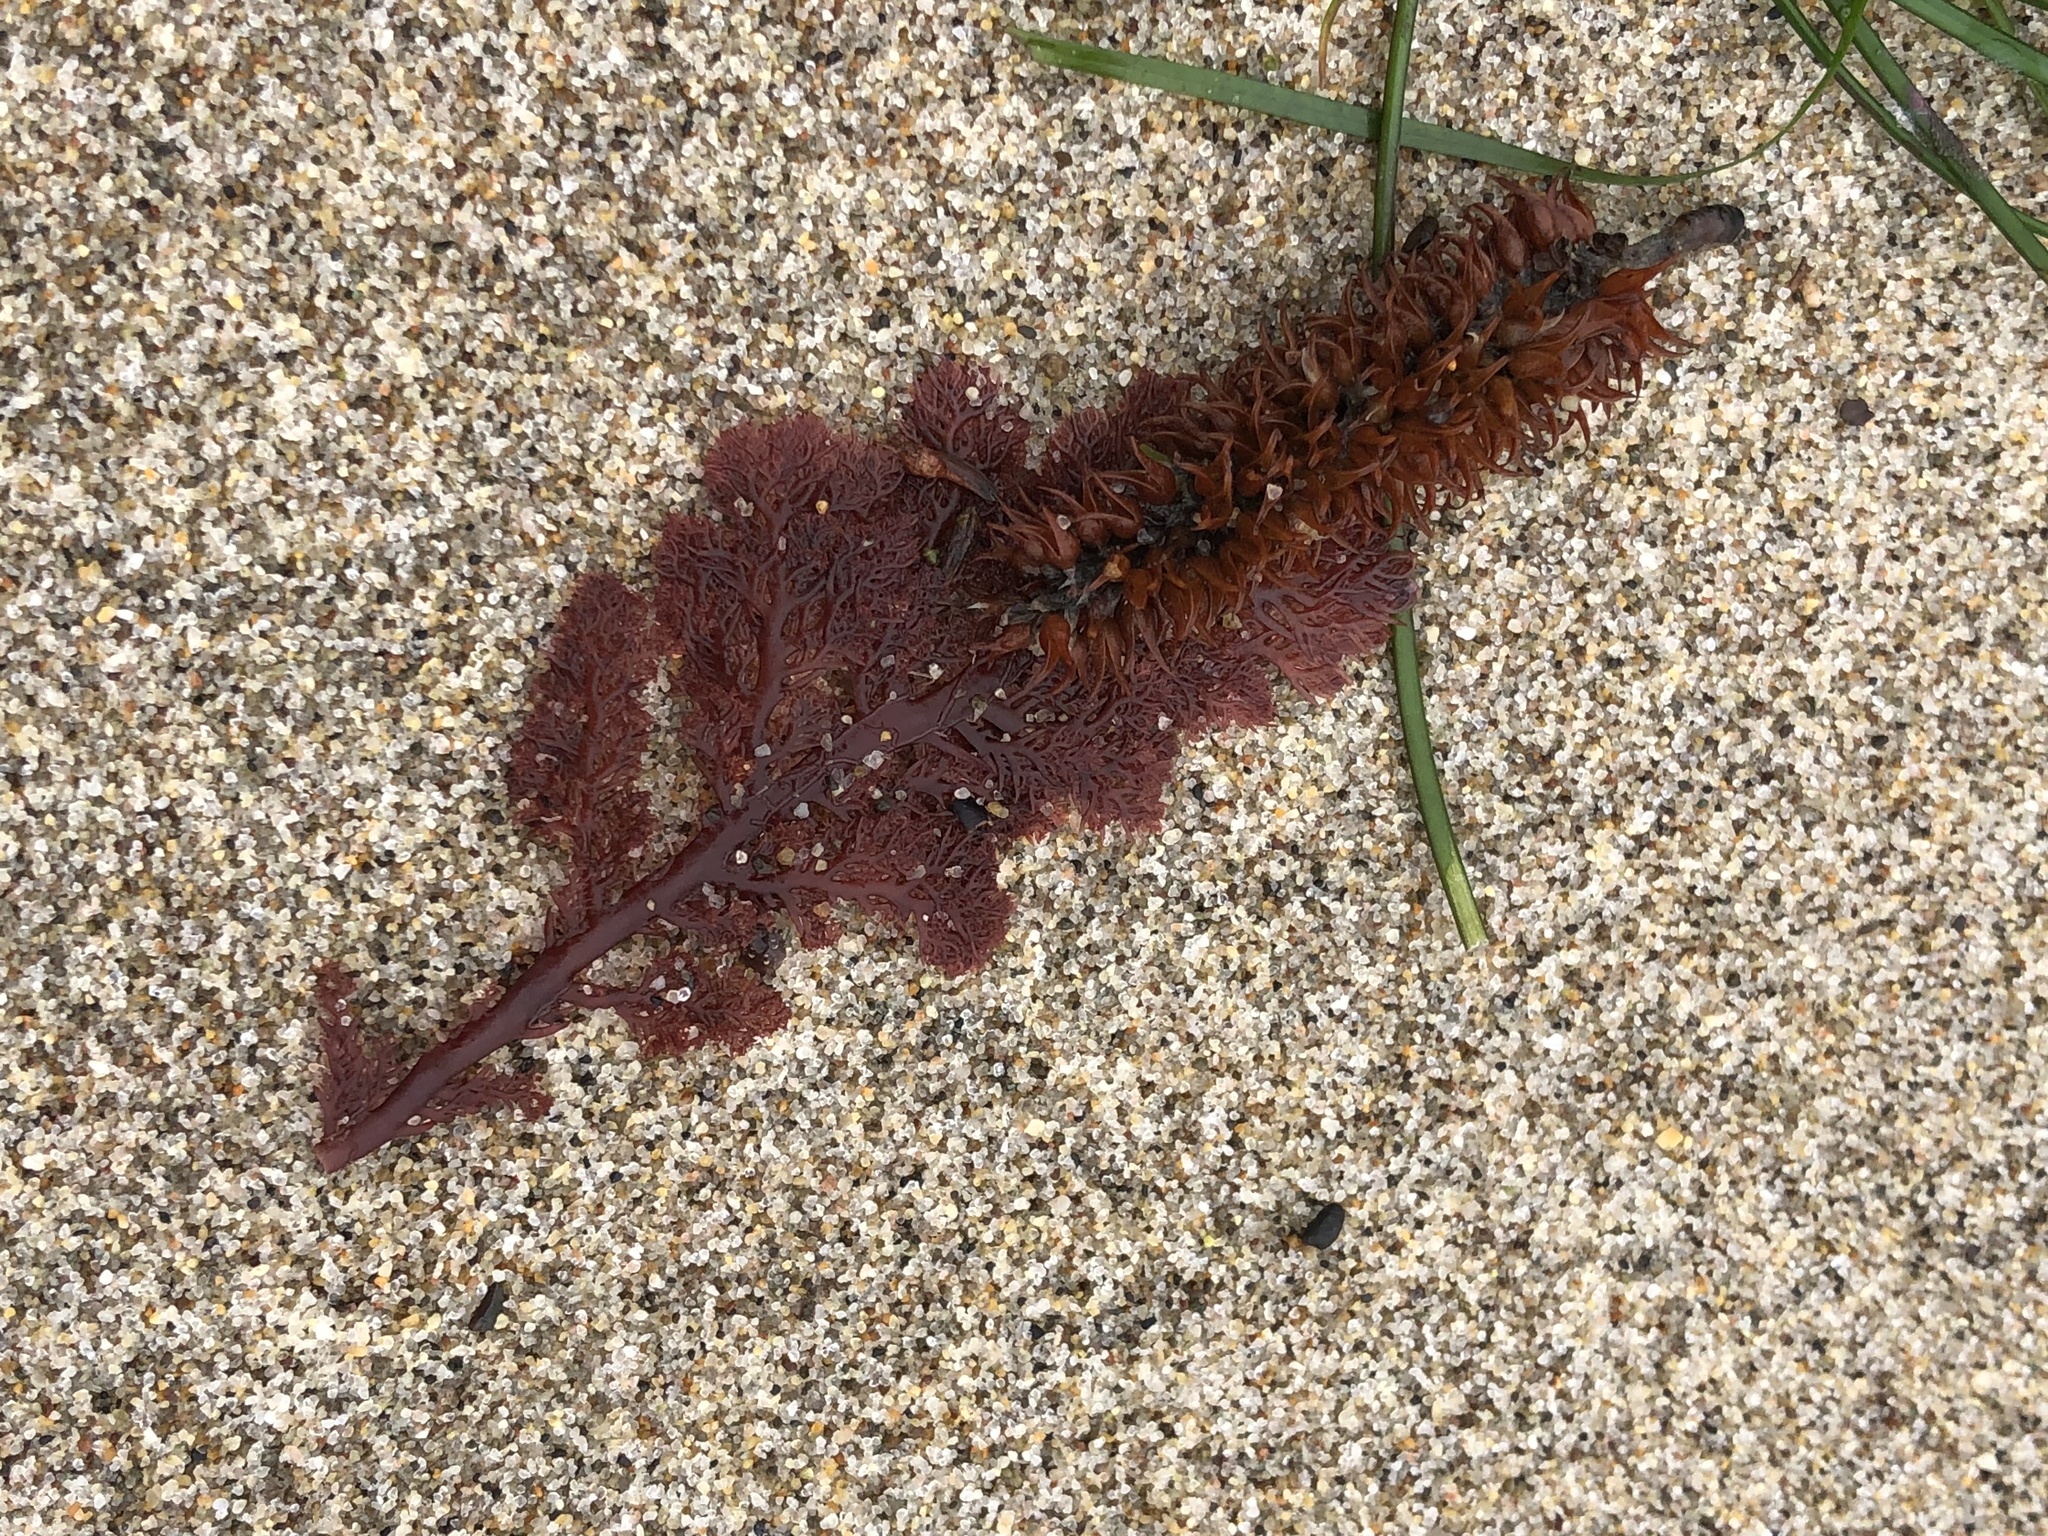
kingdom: Plantae
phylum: Rhodophyta
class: Florideophyceae
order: Plocamiales
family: Plocamiaceae
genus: Plocamium
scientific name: Plocamium cartilagineum
